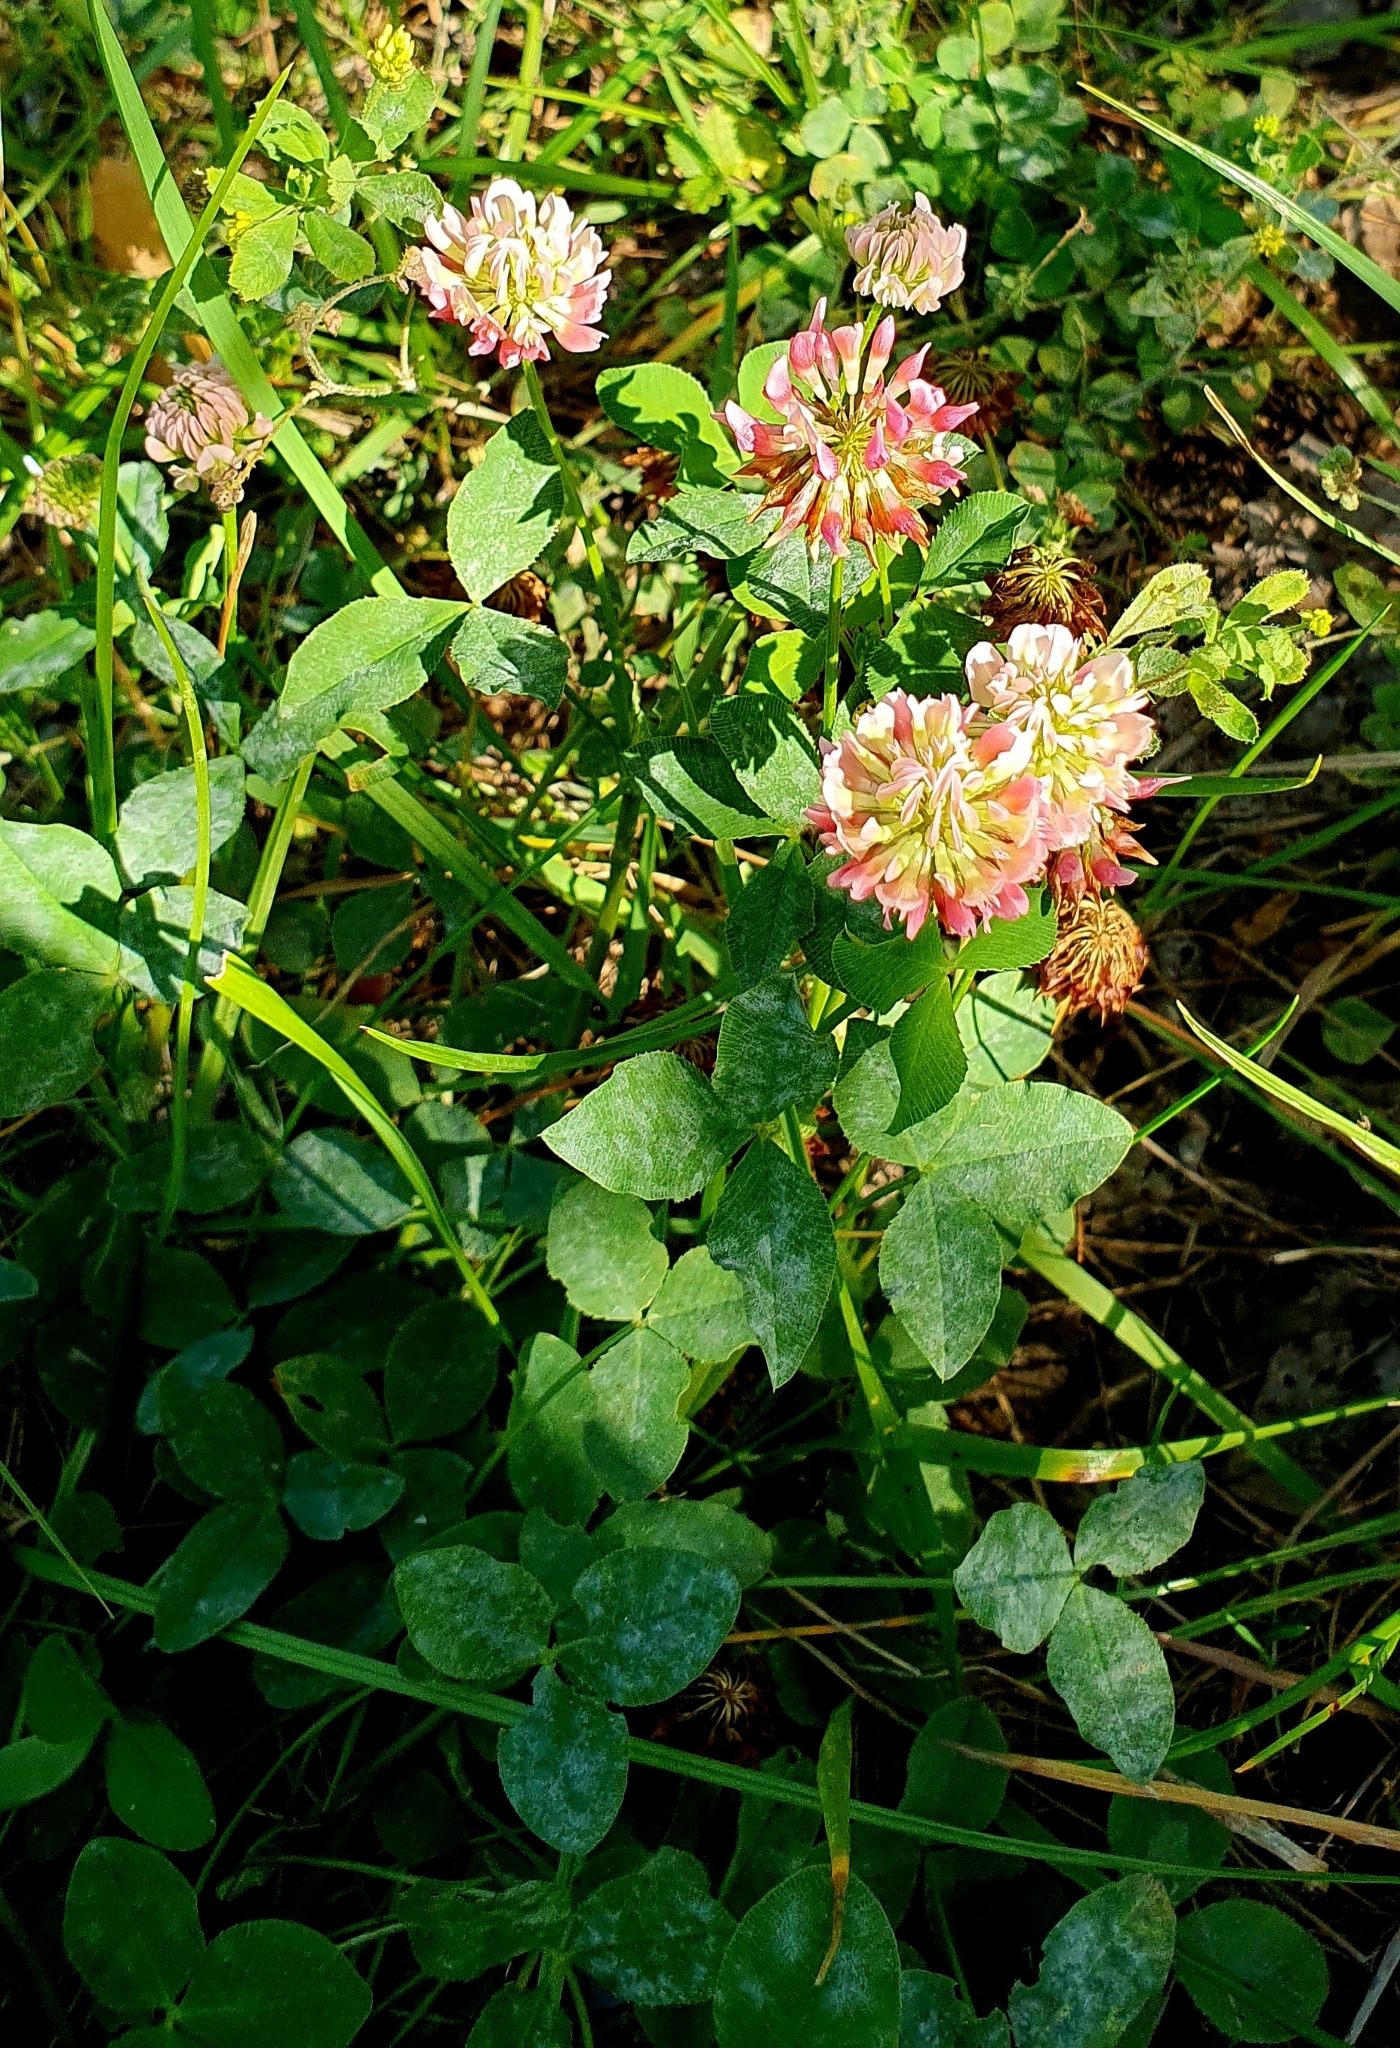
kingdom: Plantae
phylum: Tracheophyta
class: Magnoliopsida
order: Fabales
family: Fabaceae
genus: Trifolium
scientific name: Trifolium hybridum
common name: Alsike clover
